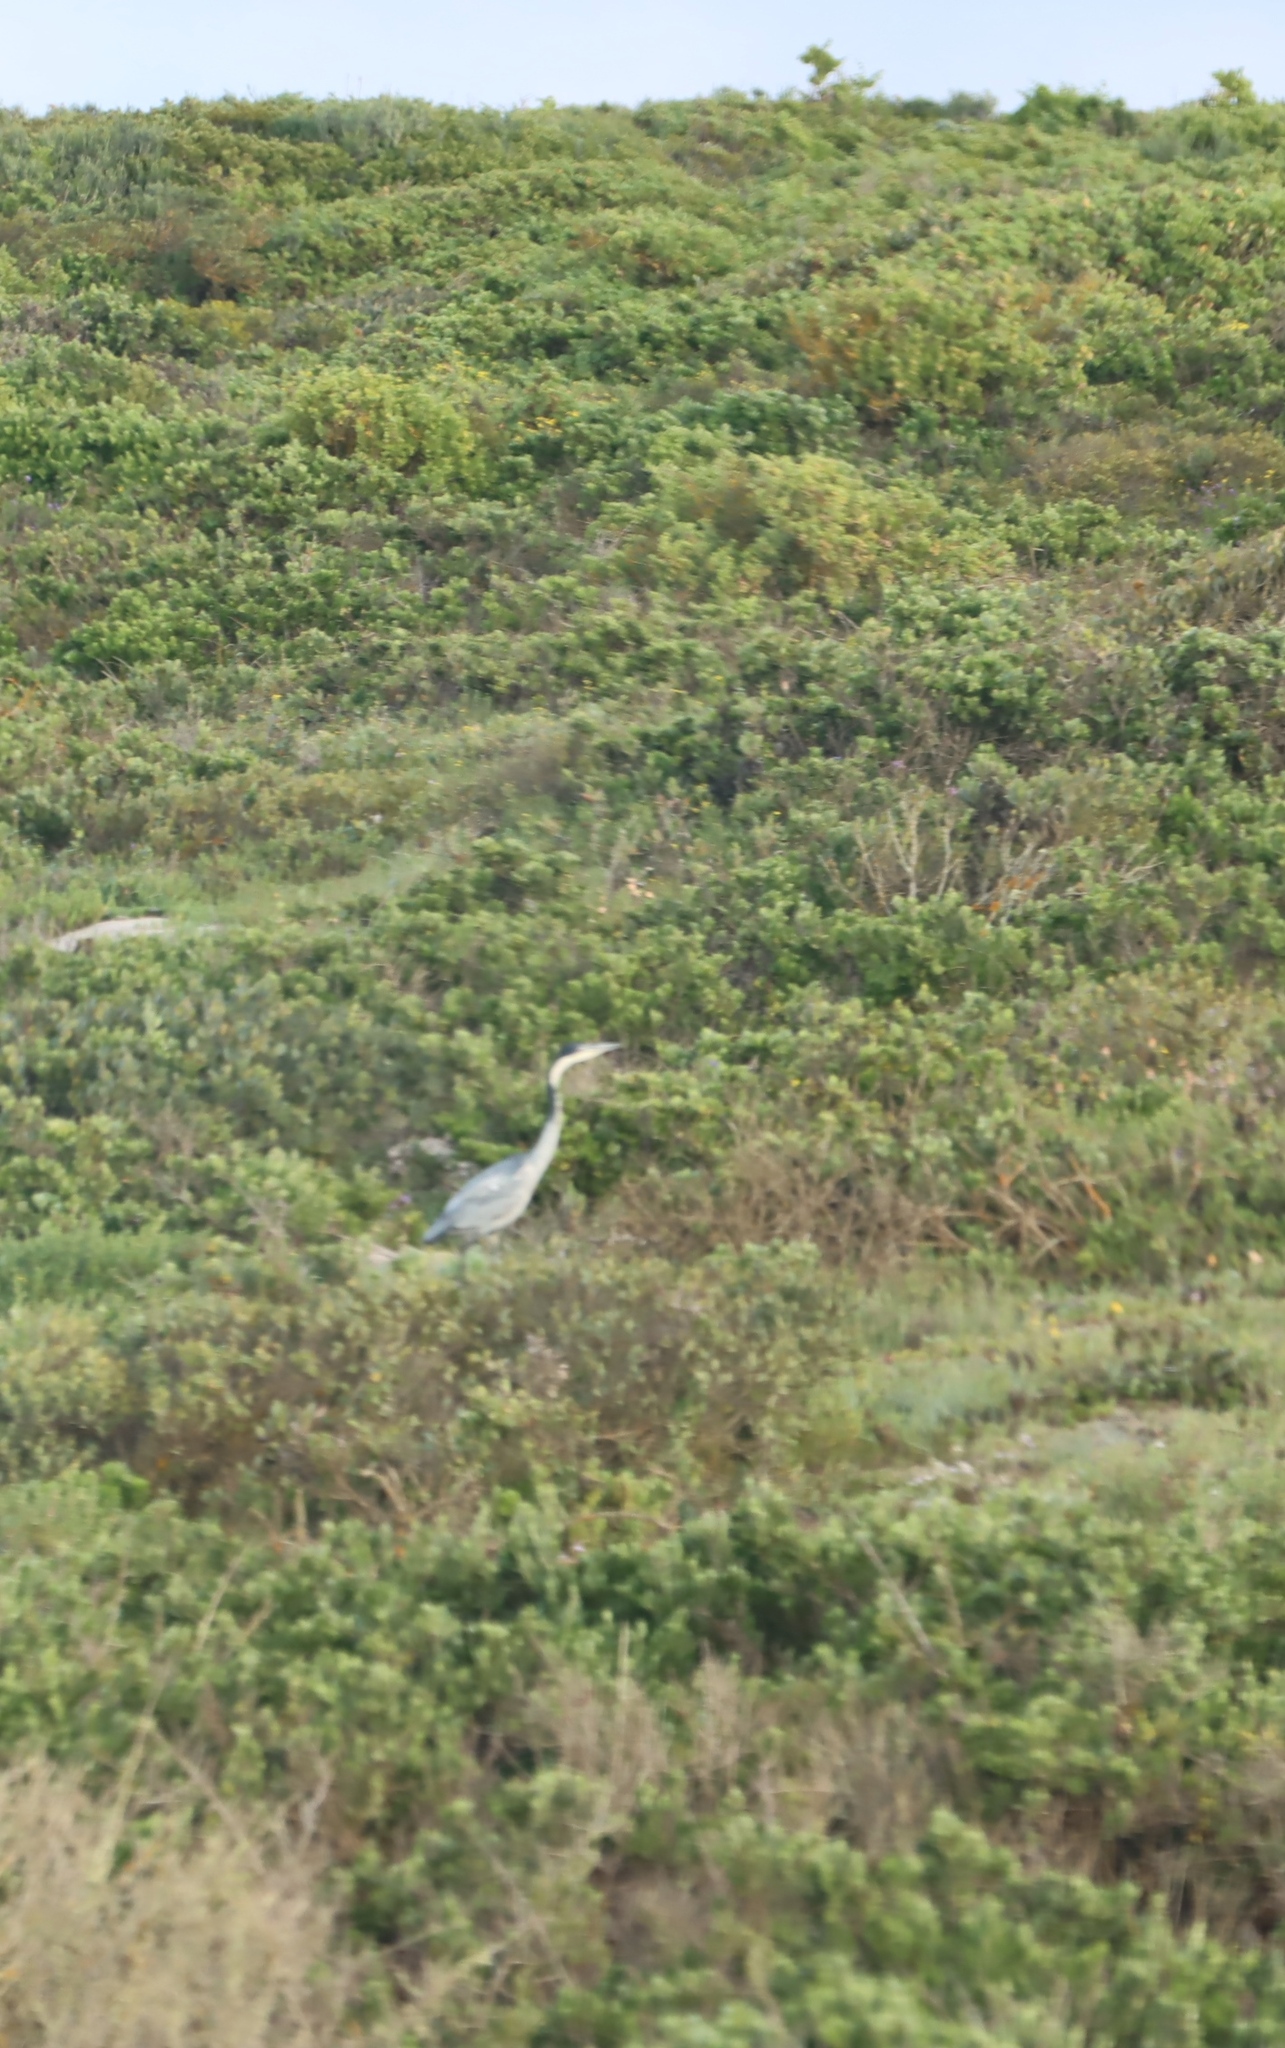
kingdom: Animalia
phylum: Chordata
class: Aves
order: Pelecaniformes
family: Ardeidae
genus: Ardea
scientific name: Ardea melanocephala
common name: Black-headed heron
